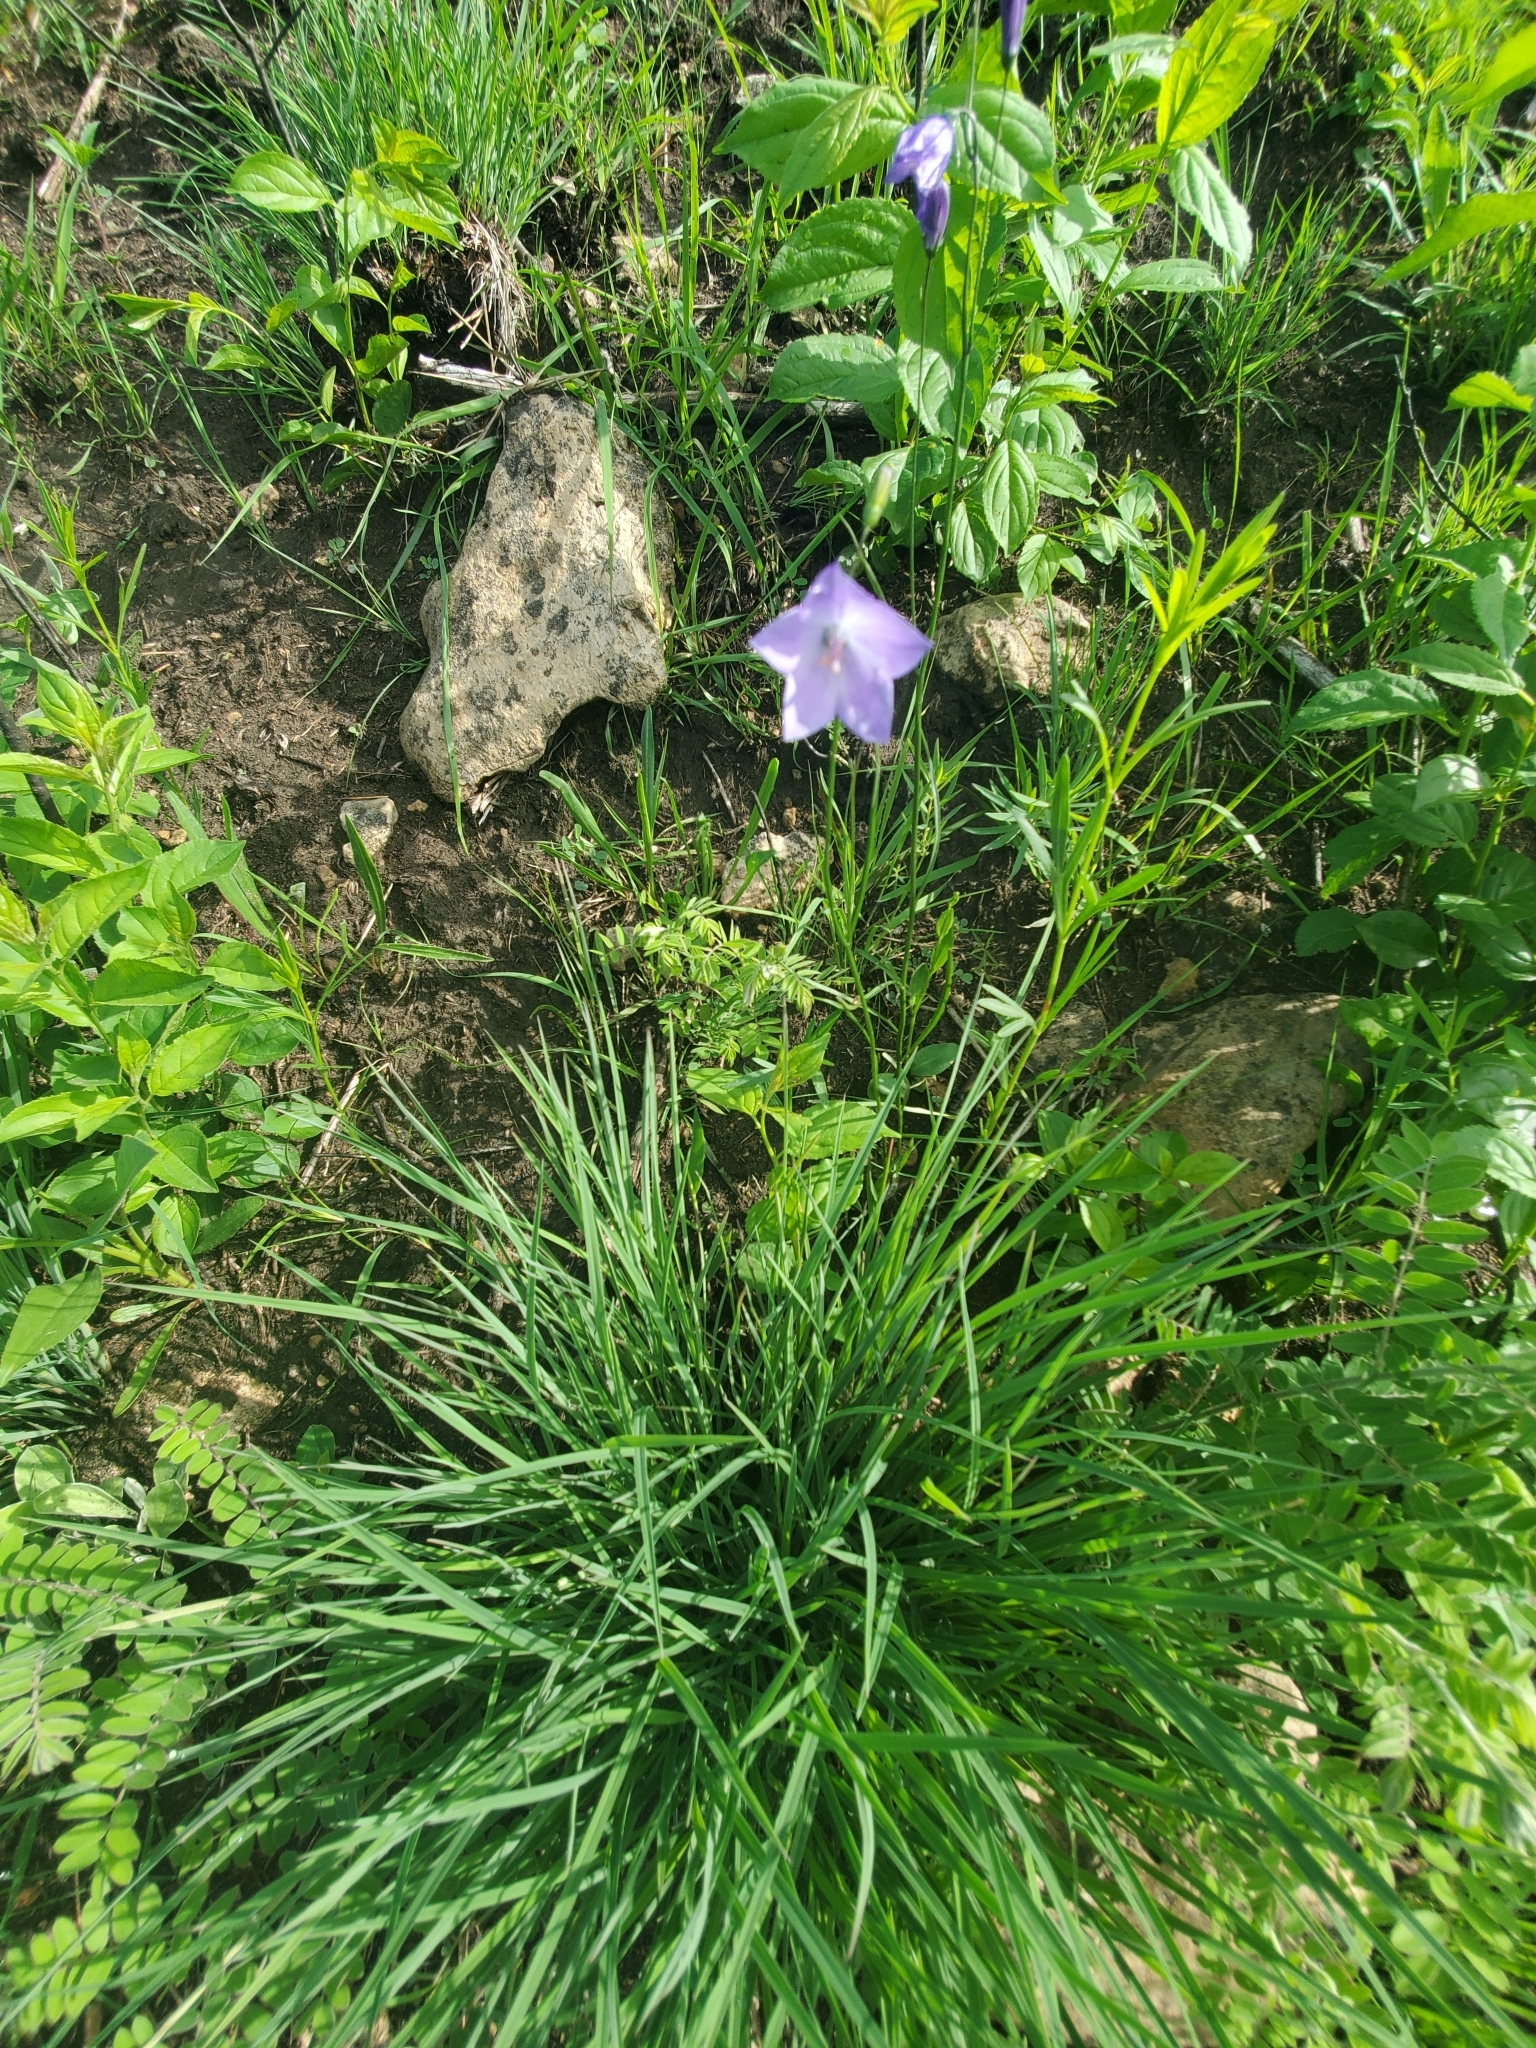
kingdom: Plantae
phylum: Tracheophyta
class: Magnoliopsida
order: Asterales
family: Campanulaceae
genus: Campanula
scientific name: Campanula intercedens
